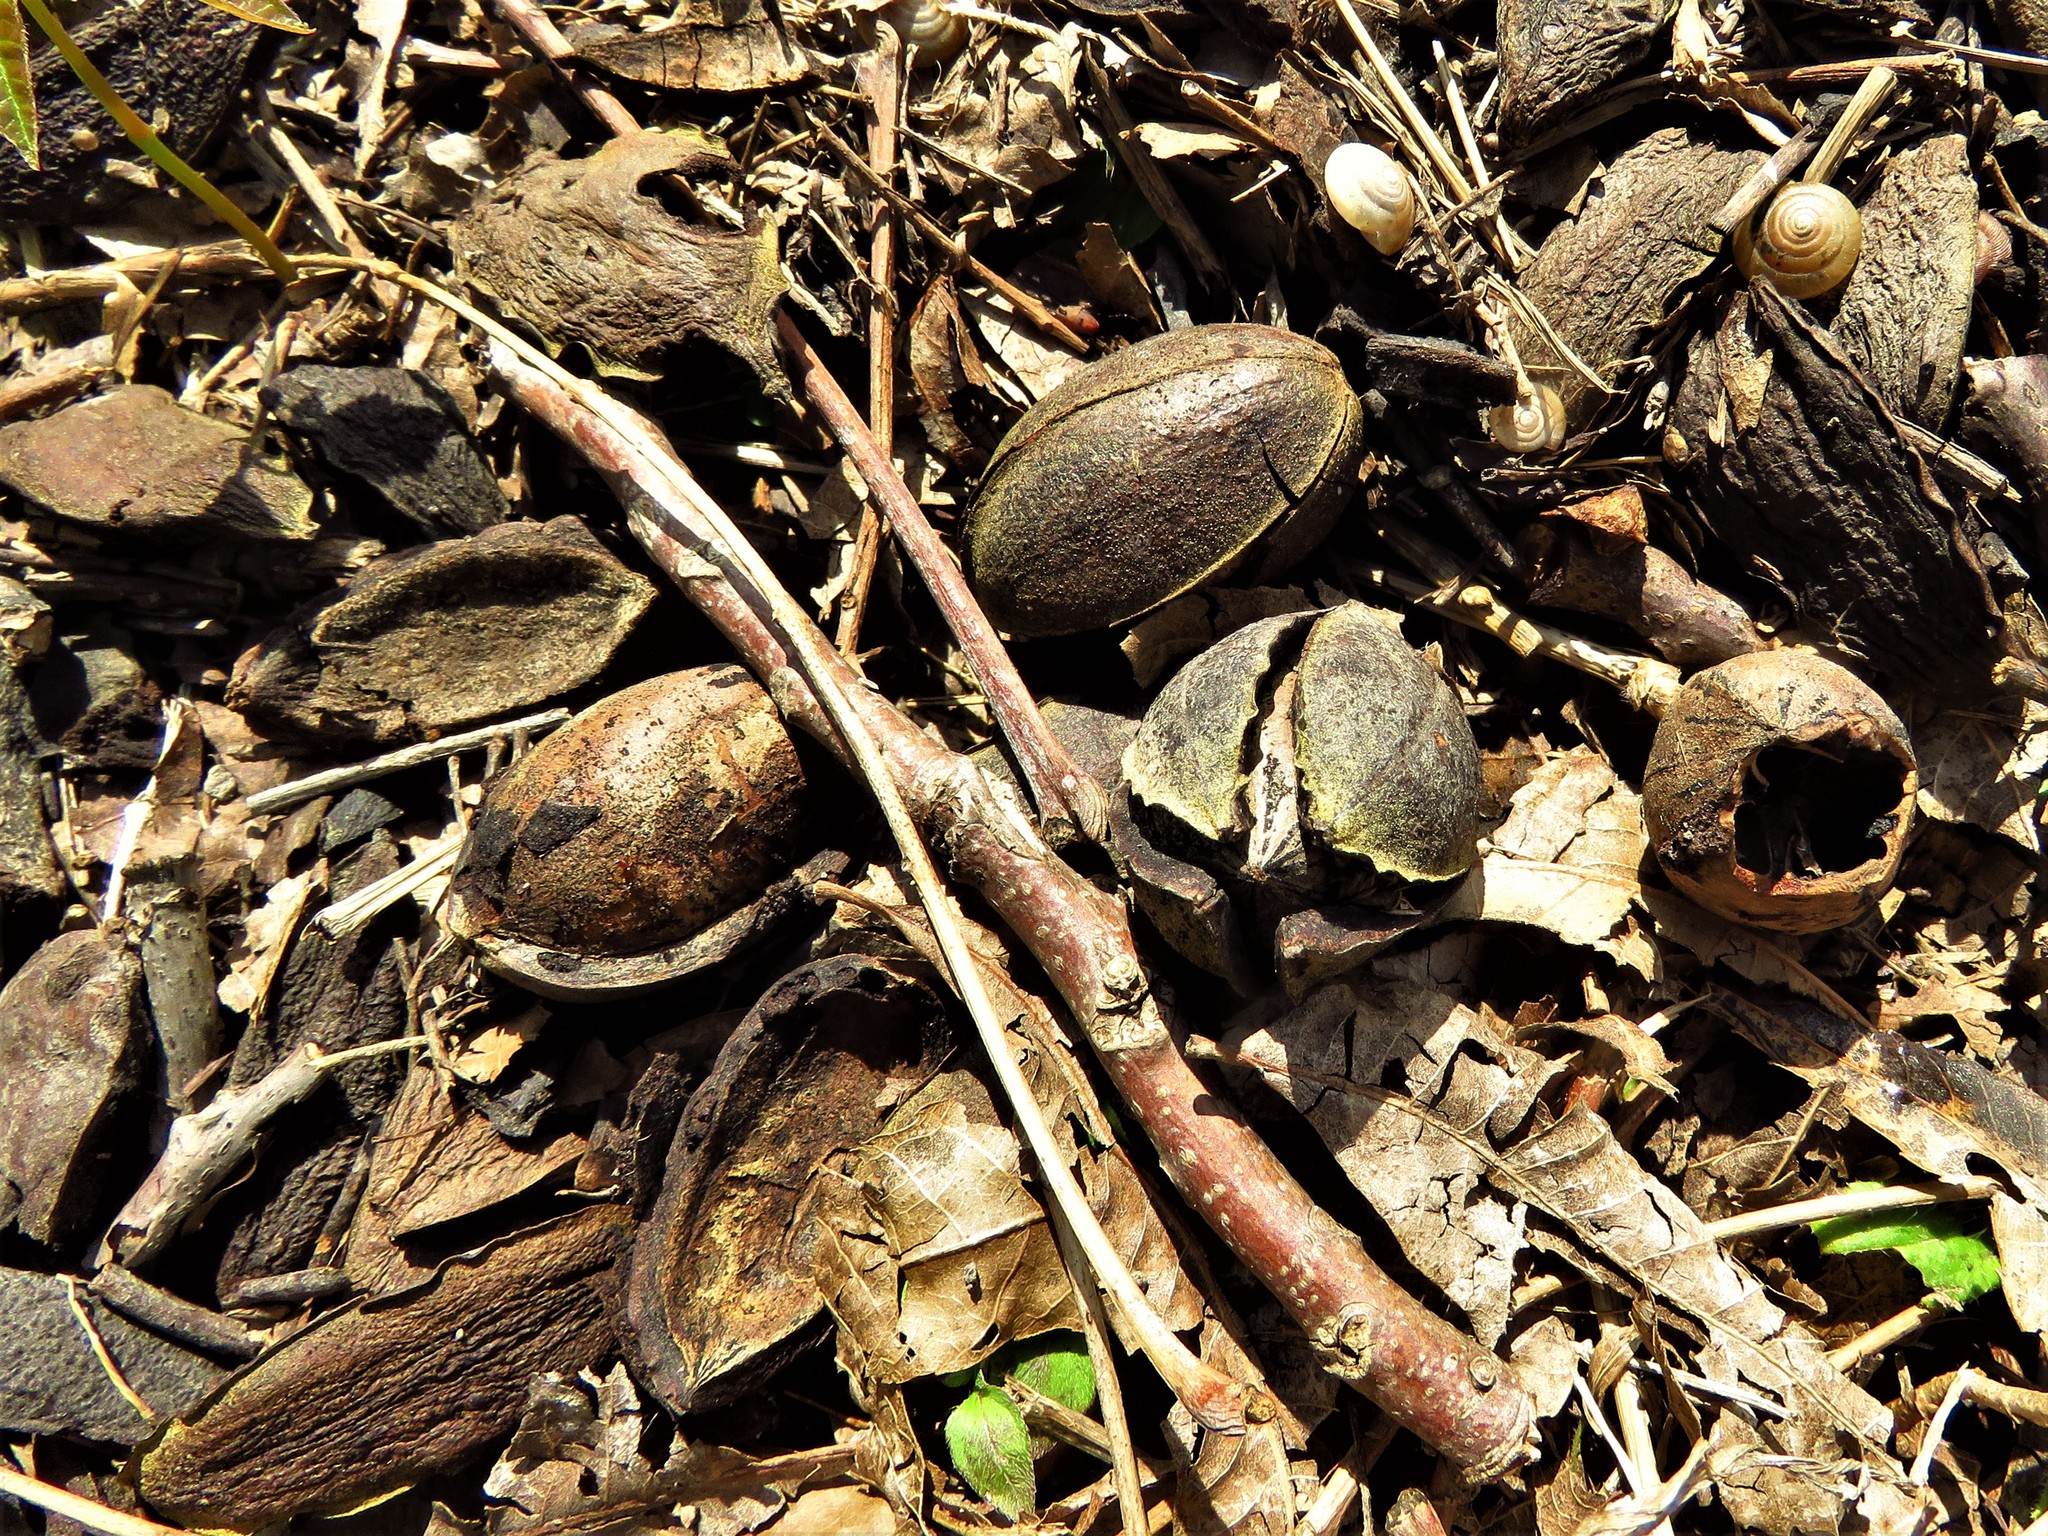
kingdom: Plantae
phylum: Tracheophyta
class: Magnoliopsida
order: Fagales
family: Juglandaceae
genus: Carya
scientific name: Carya illinoinensis
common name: Pecan
